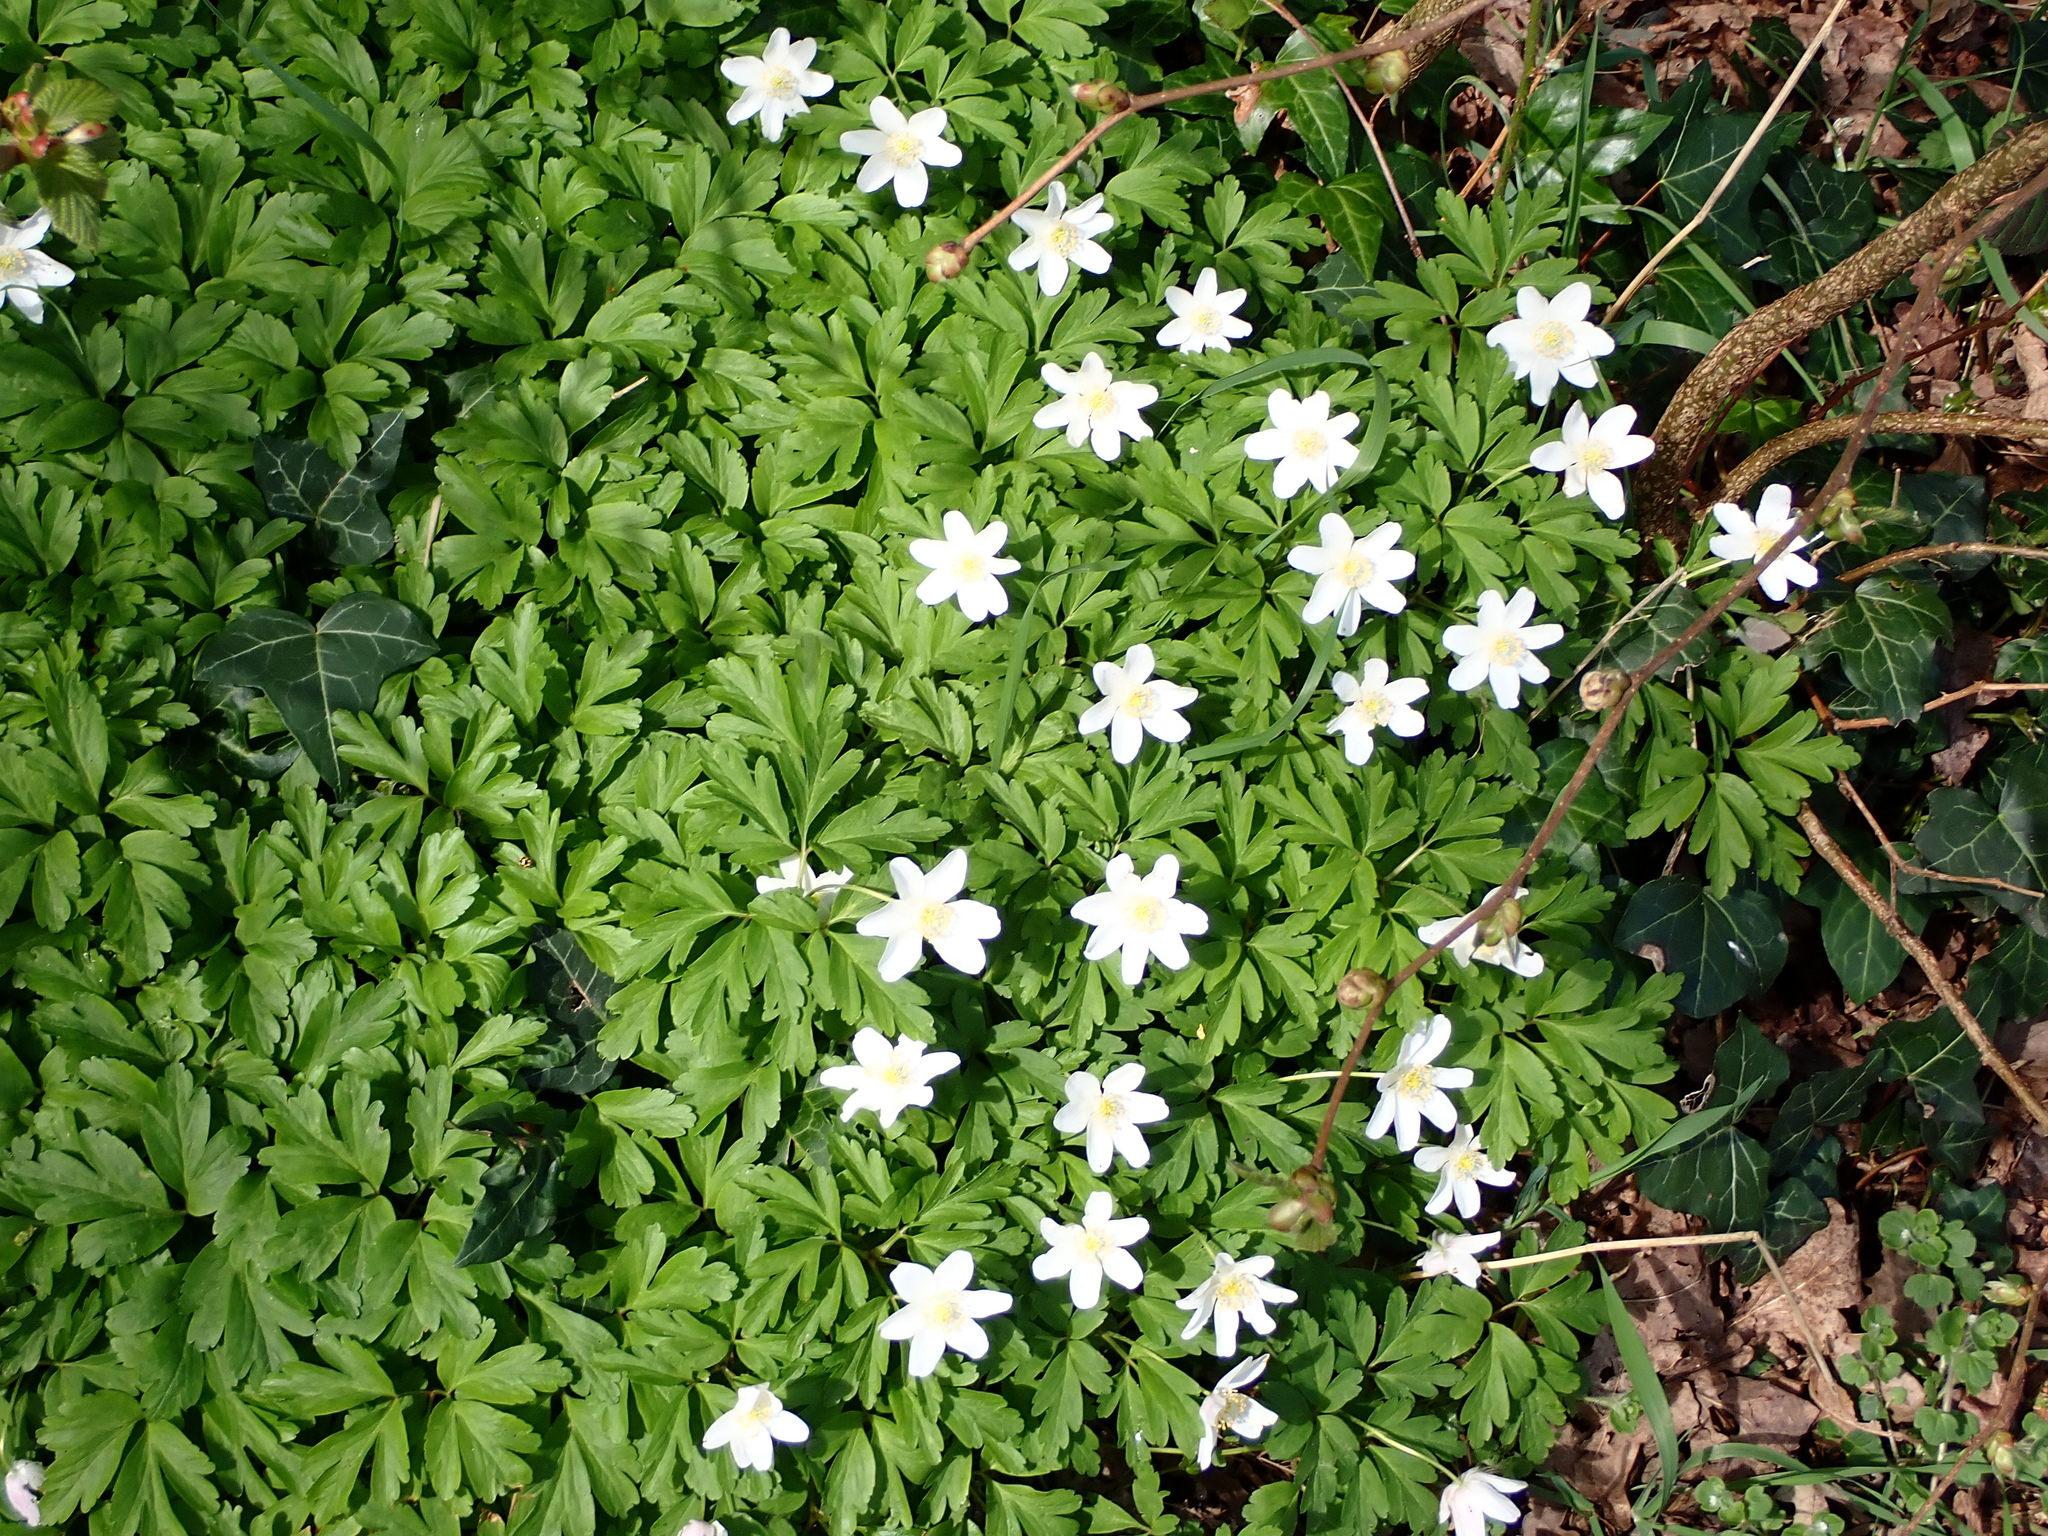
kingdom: Plantae
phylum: Tracheophyta
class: Magnoliopsida
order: Ranunculales
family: Ranunculaceae
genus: Anemone
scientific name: Anemone nemorosa
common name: Wood anemone
